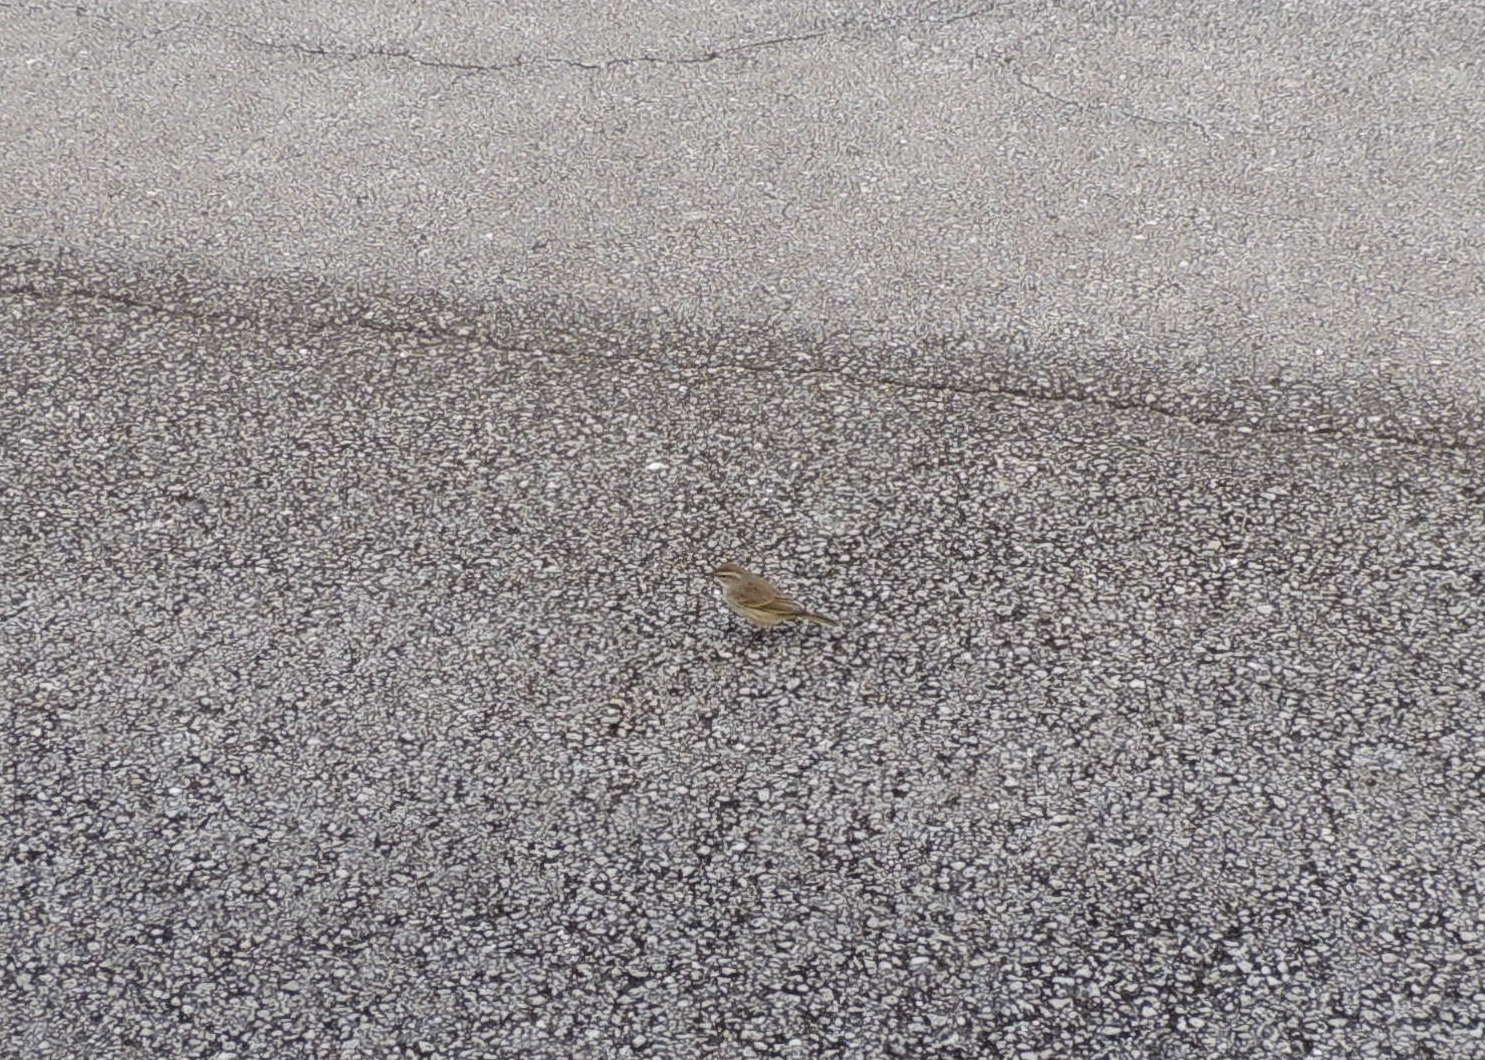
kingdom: Animalia
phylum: Chordata
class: Aves
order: Passeriformes
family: Parulidae
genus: Setophaga
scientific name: Setophaga palmarum
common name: Palm warbler
